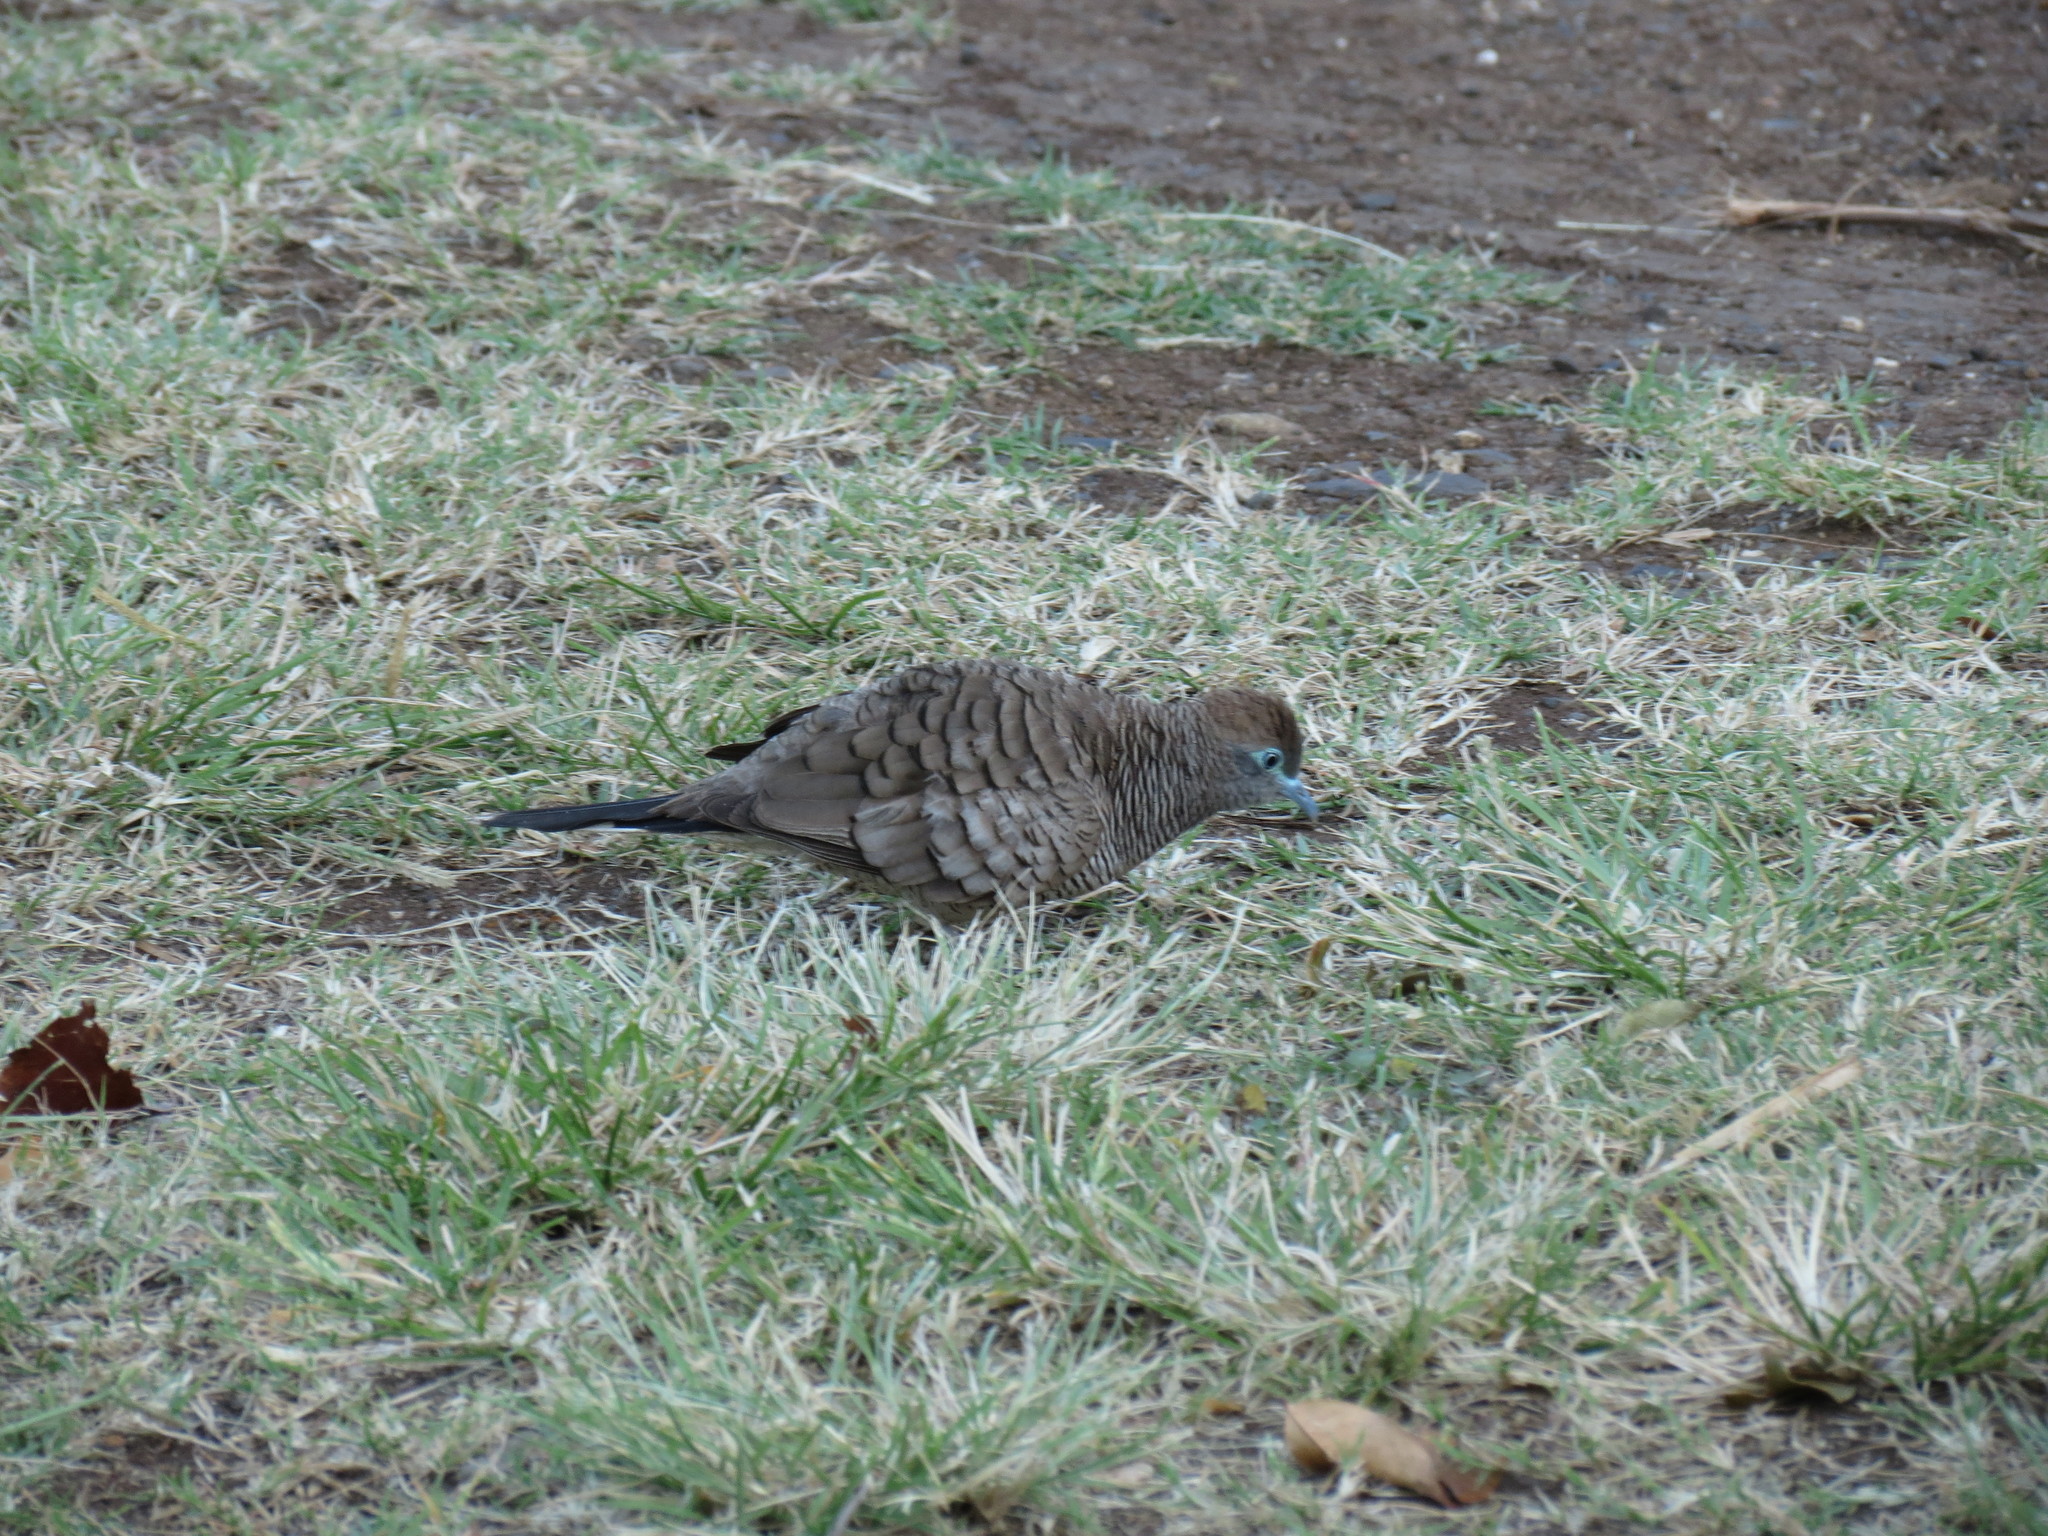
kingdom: Animalia
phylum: Chordata
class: Aves
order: Columbiformes
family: Columbidae
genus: Geopelia
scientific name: Geopelia striata
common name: Zebra dove
